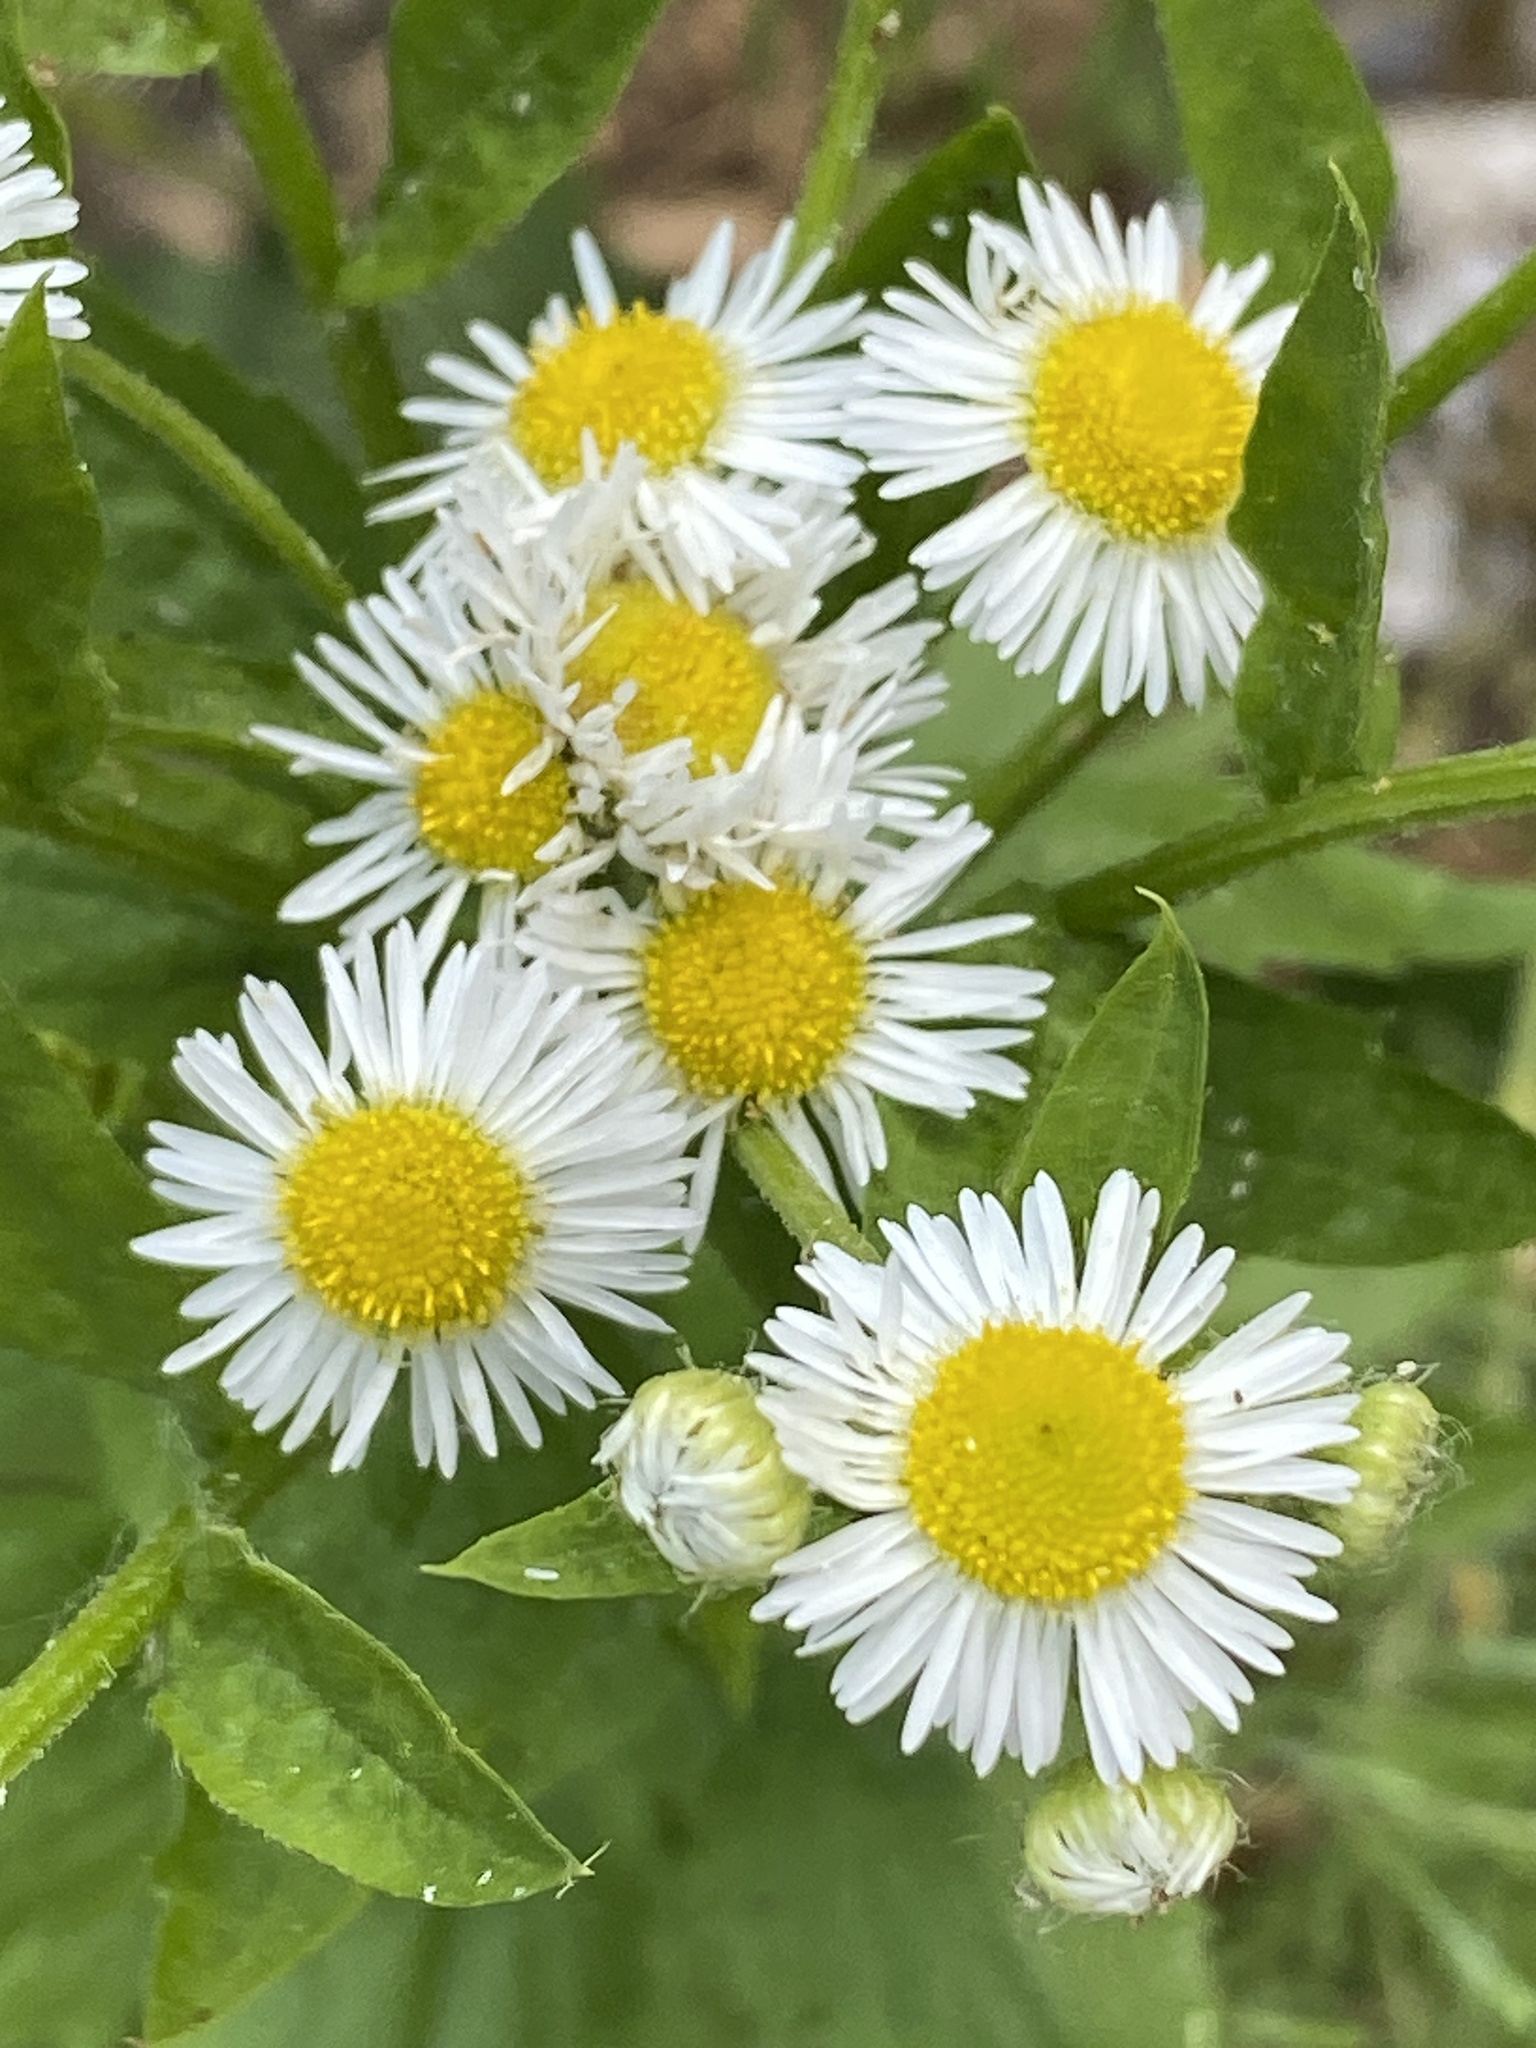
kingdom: Plantae
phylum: Tracheophyta
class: Magnoliopsida
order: Asterales
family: Asteraceae
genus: Erigeron
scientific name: Erigeron annuus
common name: Tall fleabane
